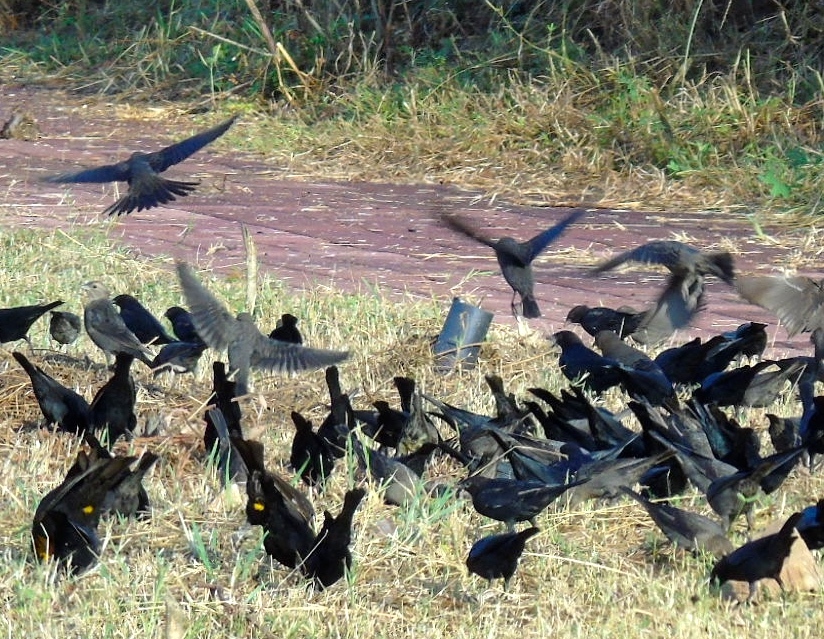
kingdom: Animalia
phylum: Chordata
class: Aves
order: Passeriformes
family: Icteridae
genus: Molothrus
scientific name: Molothrus ater
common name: Brown-headed cowbird
